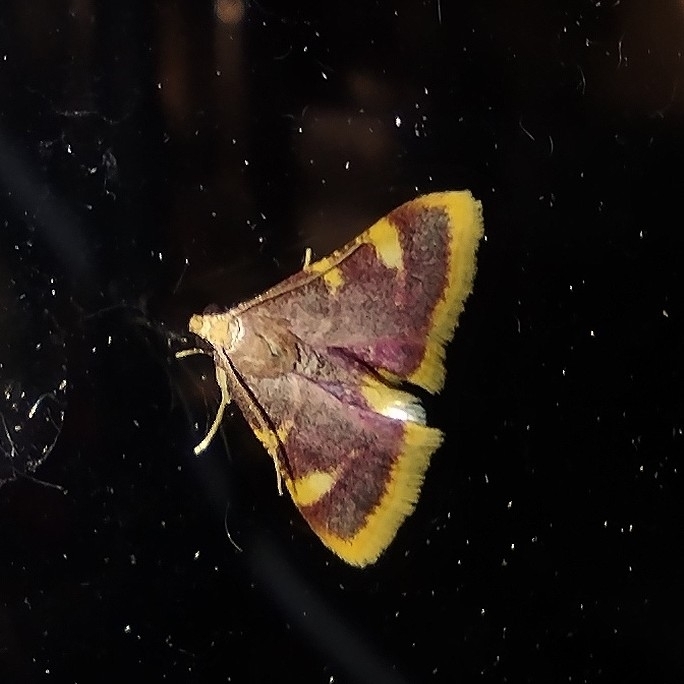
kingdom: Animalia
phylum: Arthropoda
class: Insecta
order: Lepidoptera
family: Pyralidae
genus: Hypsopygia
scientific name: Hypsopygia costalis
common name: Gold triangle
